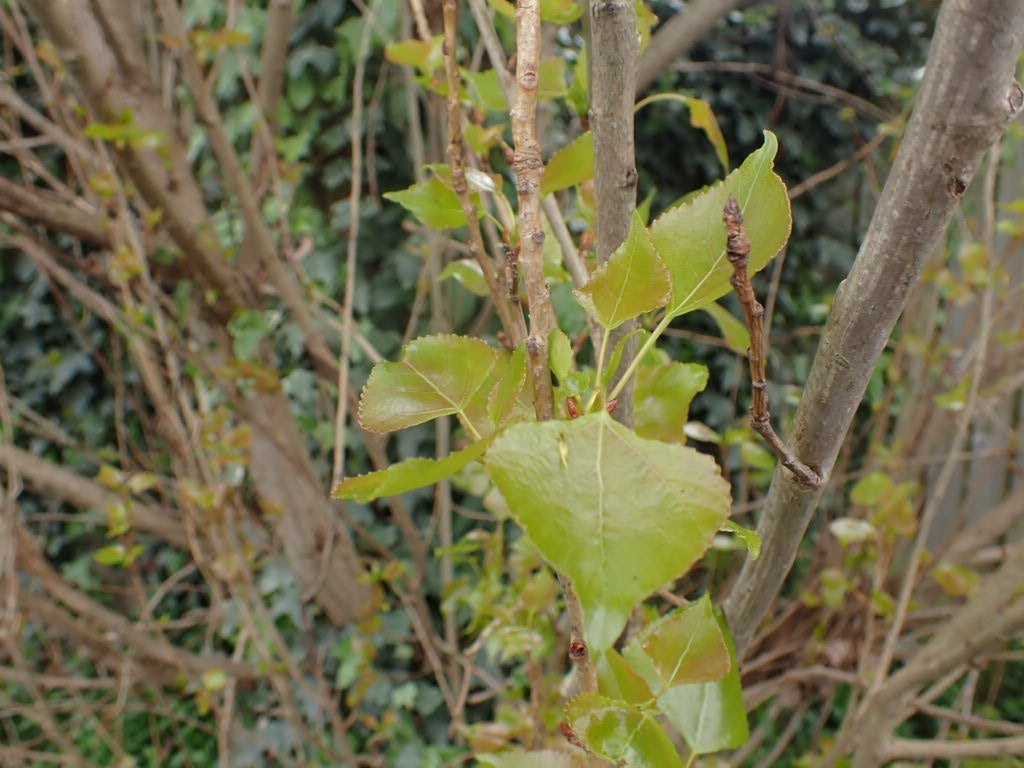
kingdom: Plantae
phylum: Tracheophyta
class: Magnoliopsida
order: Malpighiales
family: Salicaceae
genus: Populus
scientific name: Populus nigra
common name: Black poplar
